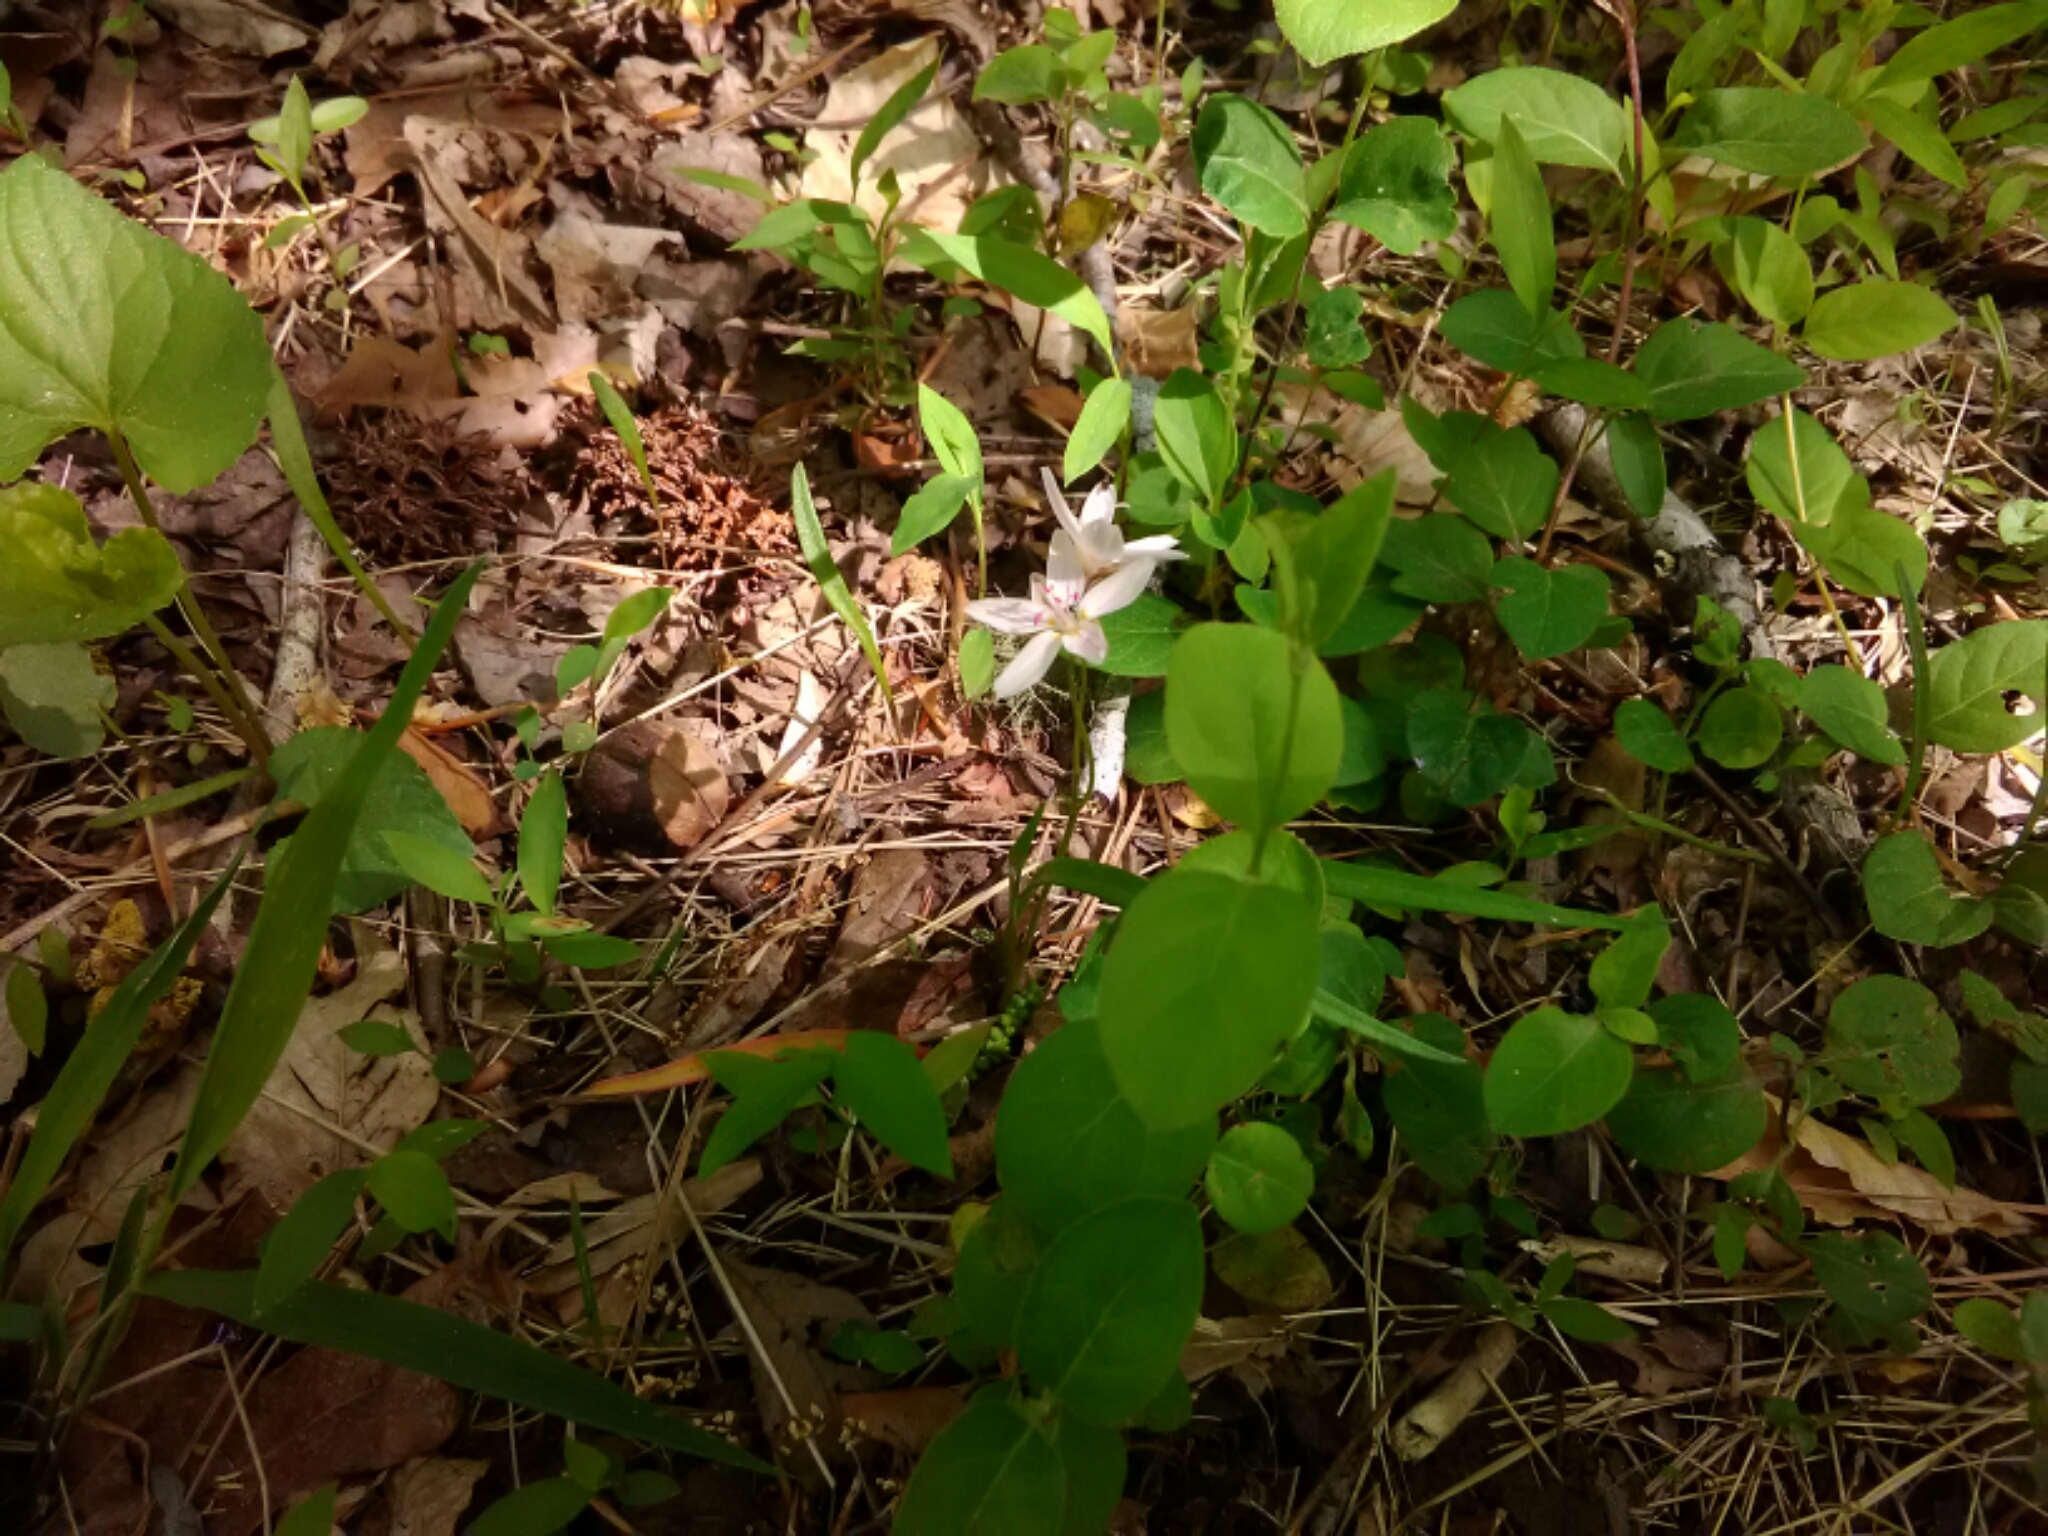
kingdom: Plantae
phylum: Tracheophyta
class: Magnoliopsida
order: Caryophyllales
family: Montiaceae
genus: Claytonia
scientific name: Claytonia virginica
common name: Virginia springbeauty
